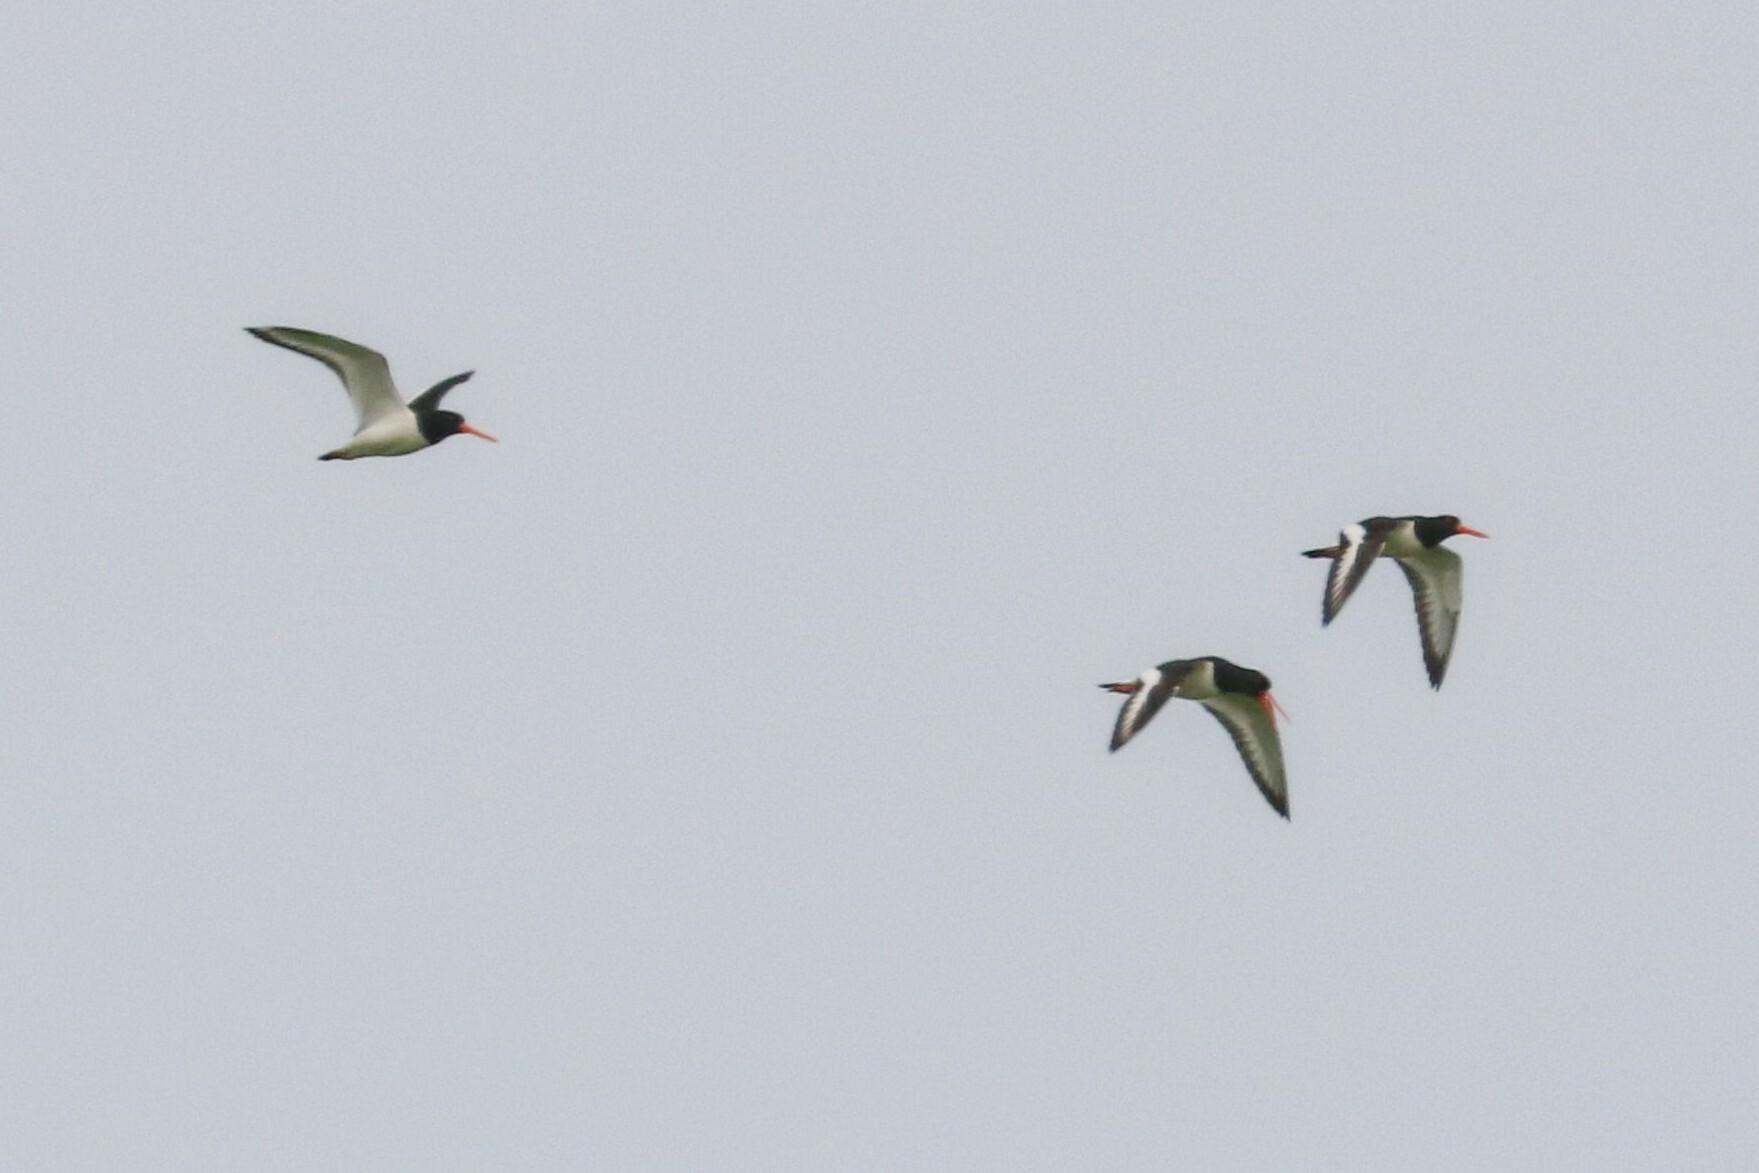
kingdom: Animalia
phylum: Chordata
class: Aves
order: Charadriiformes
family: Haematopodidae
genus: Haematopus
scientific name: Haematopus ostralegus
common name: Eurasian oystercatcher
